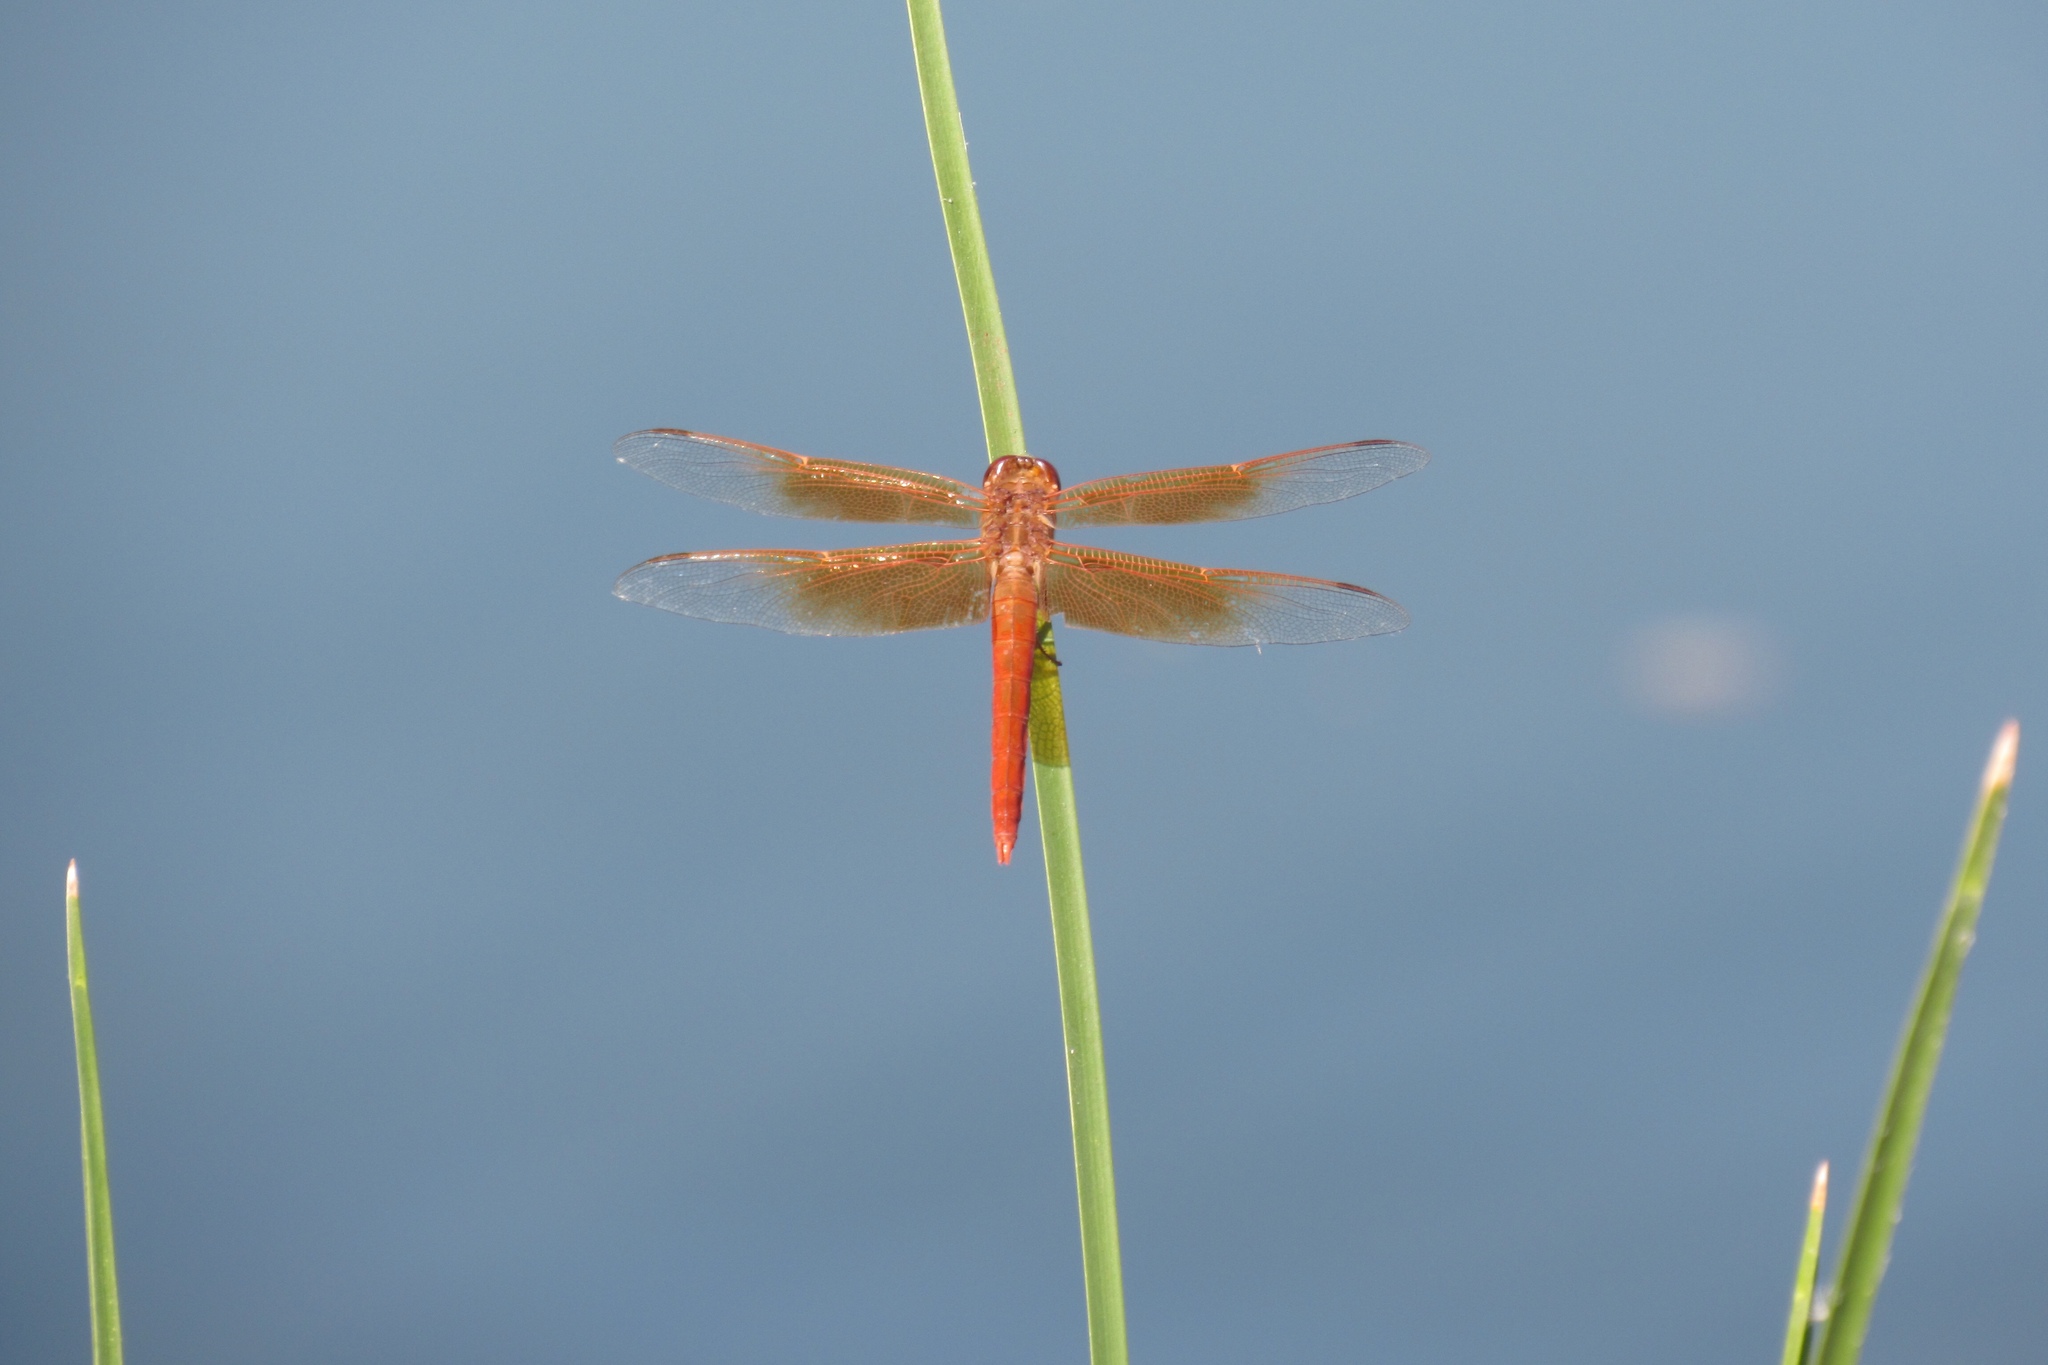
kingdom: Animalia
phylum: Arthropoda
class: Insecta
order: Odonata
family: Libellulidae
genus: Libellula
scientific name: Libellula saturata
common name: Flame skimmer
